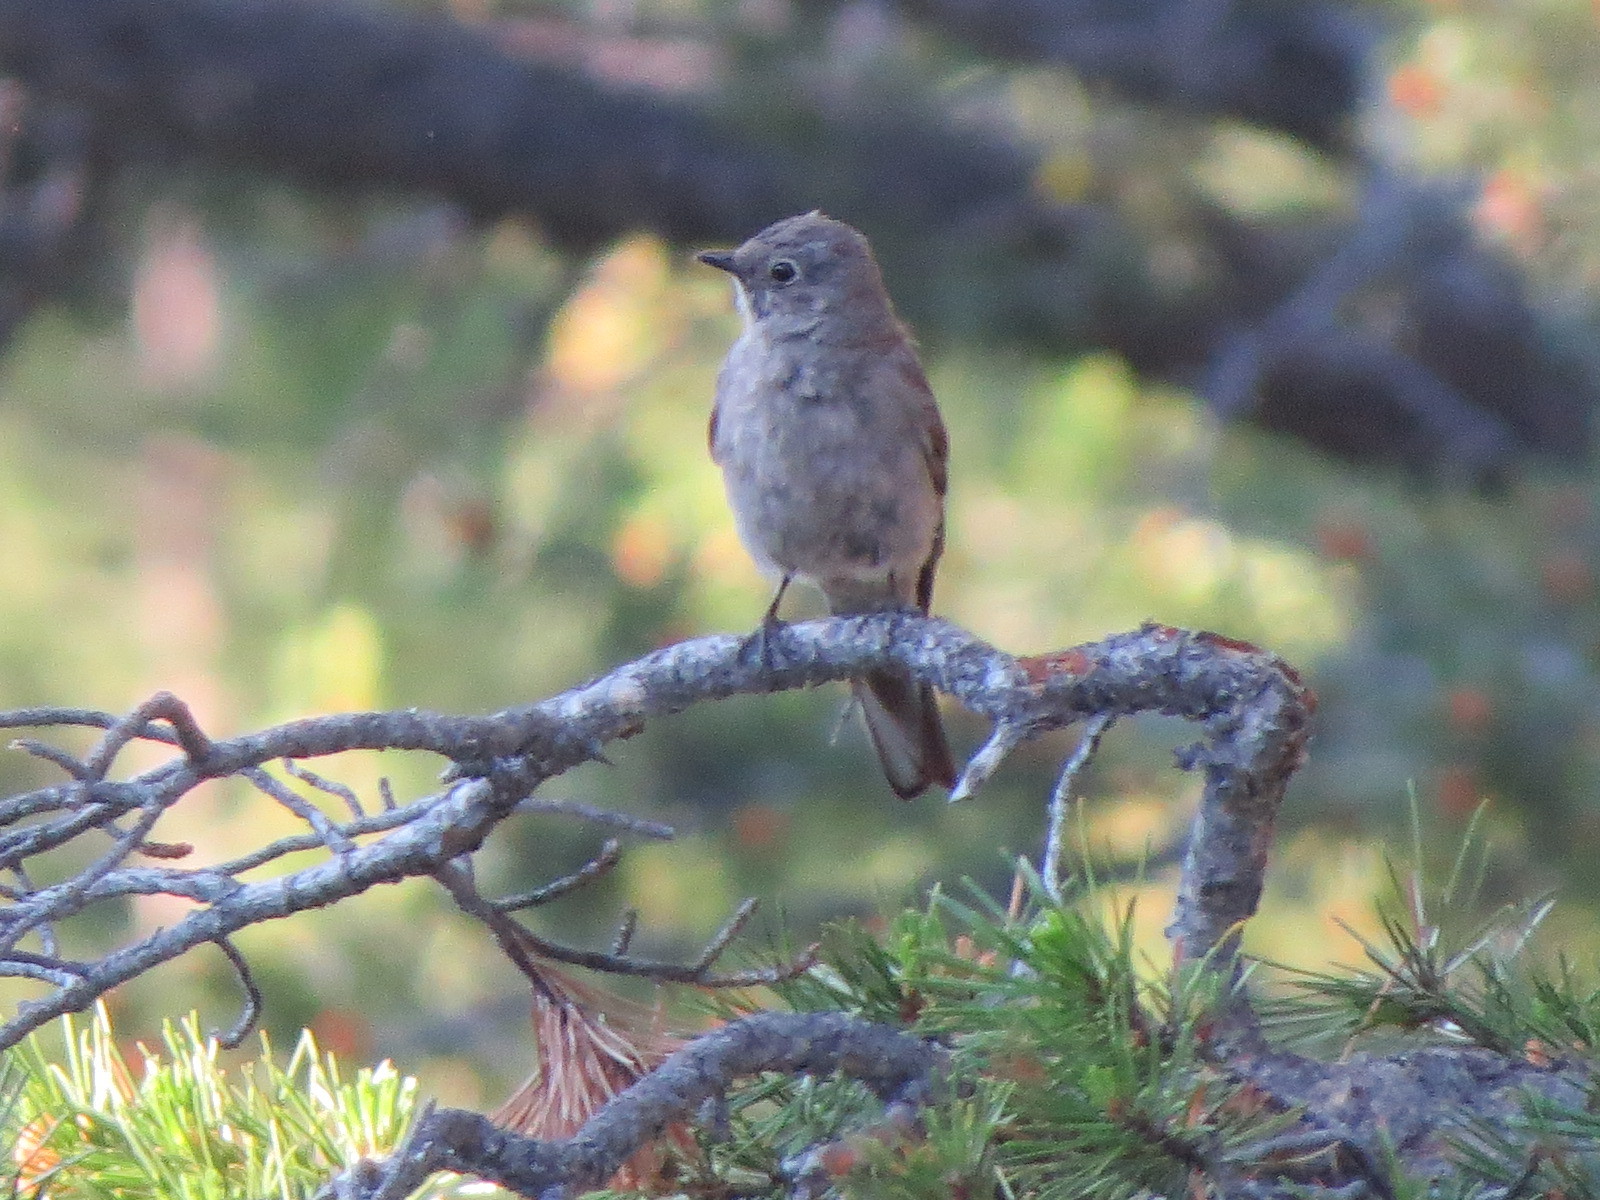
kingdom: Animalia
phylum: Chordata
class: Aves
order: Passeriformes
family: Turdidae
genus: Myadestes
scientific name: Myadestes townsendi
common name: Townsend's solitaire
